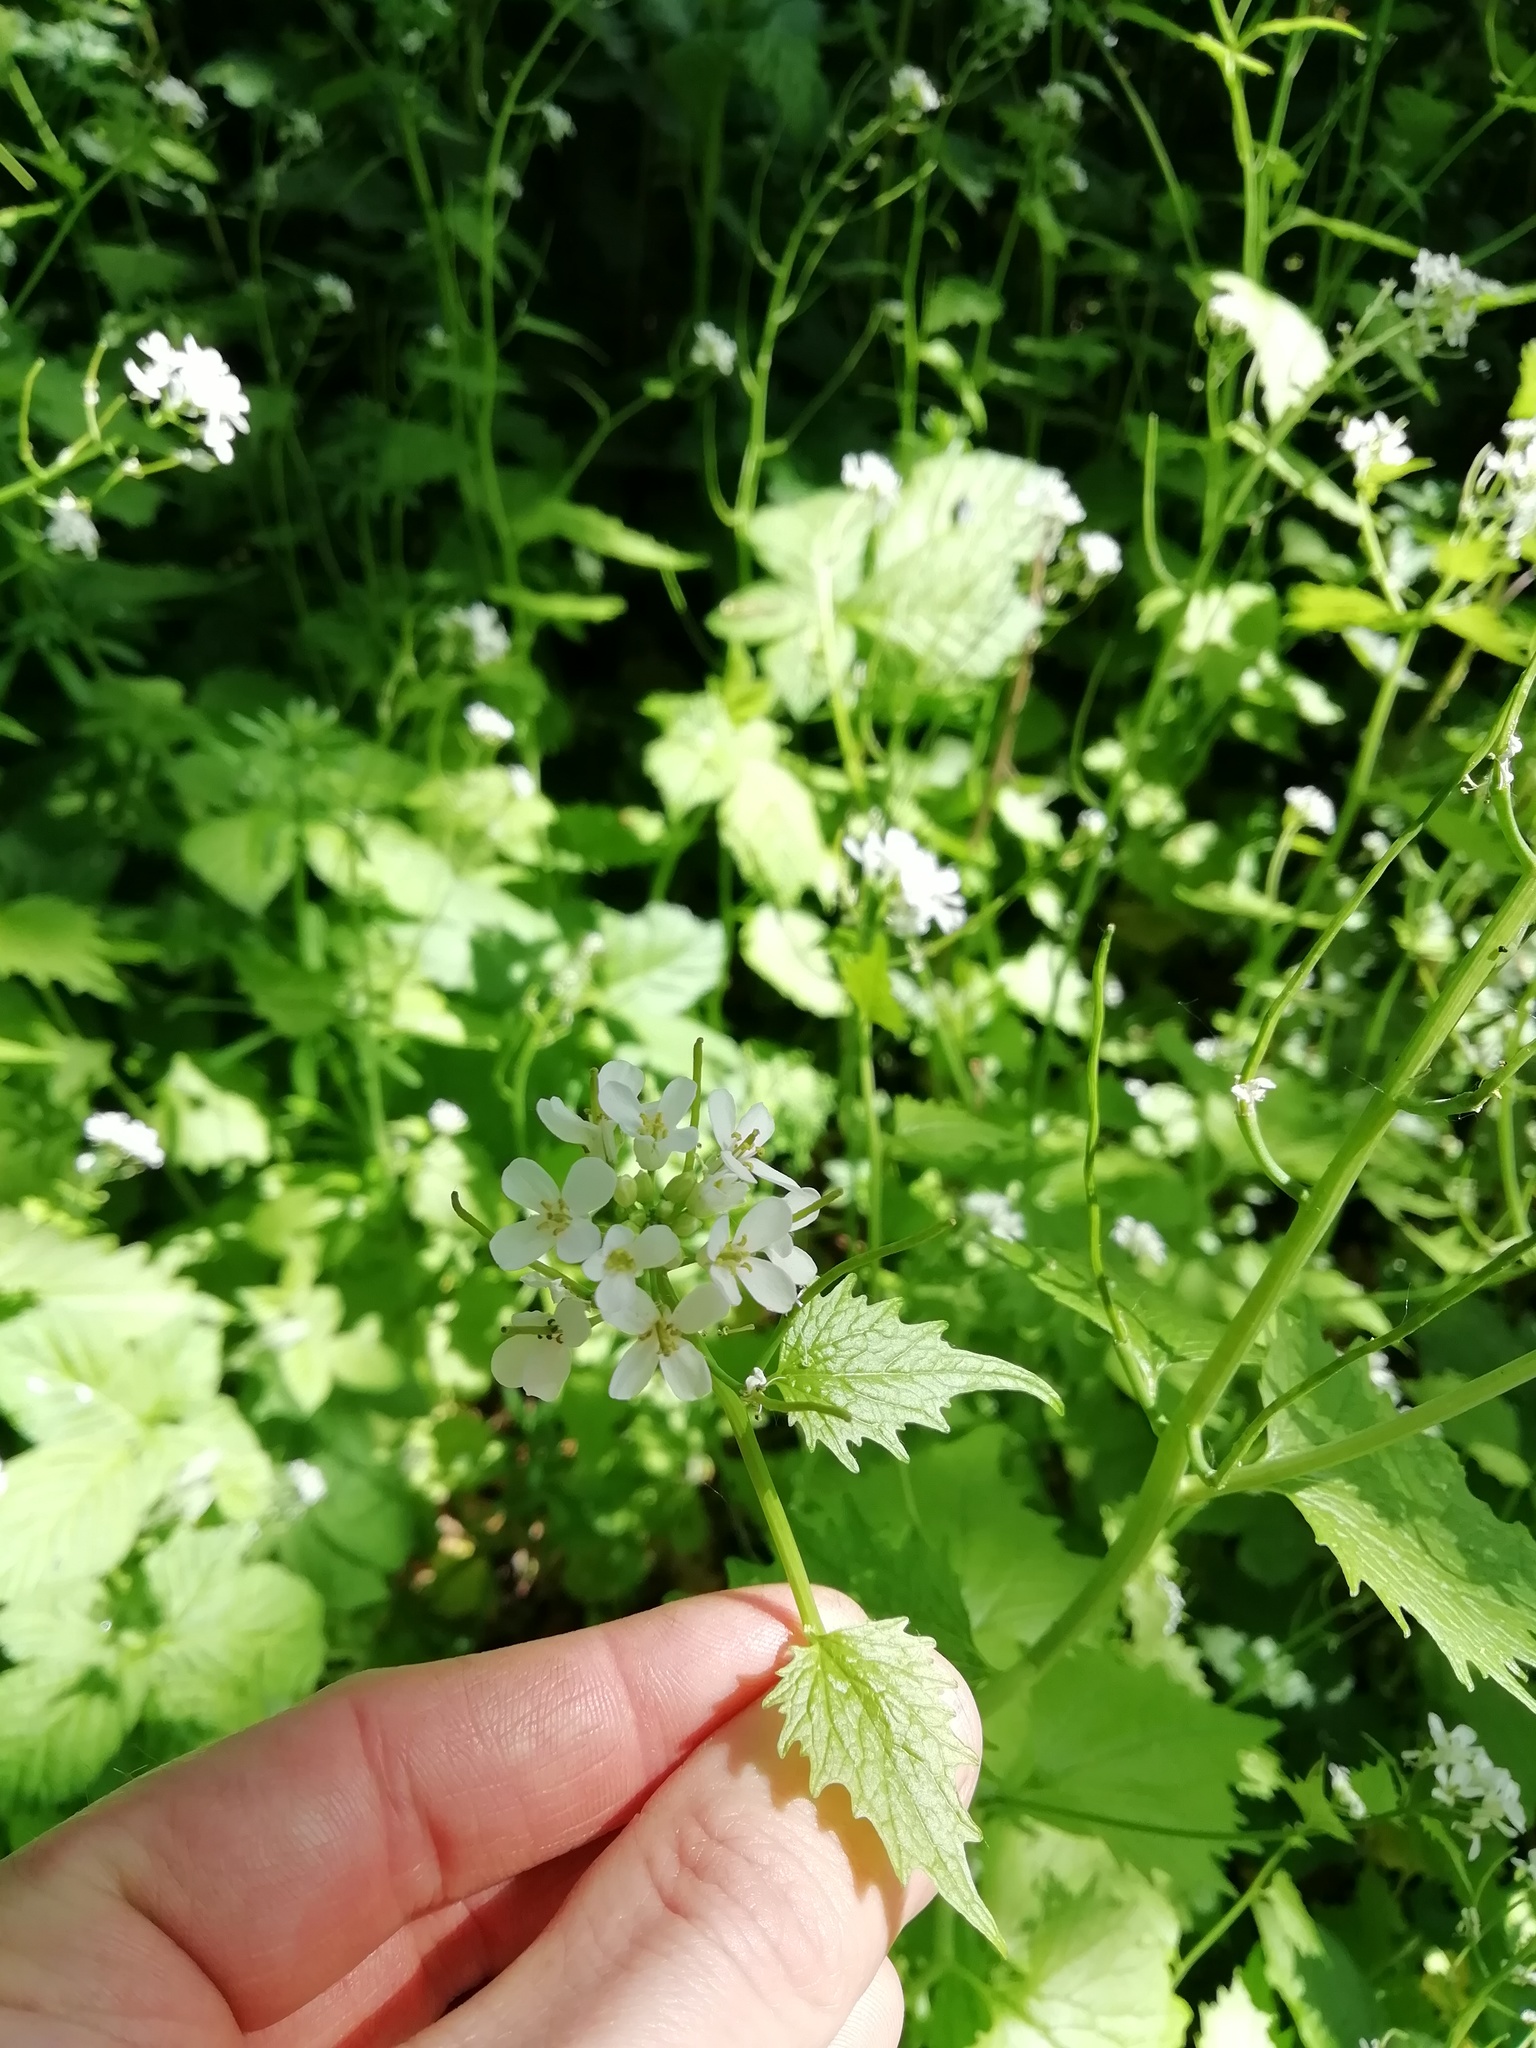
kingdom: Plantae
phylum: Tracheophyta
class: Magnoliopsida
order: Brassicales
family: Brassicaceae
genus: Alliaria
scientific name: Alliaria petiolata
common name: Garlic mustard
